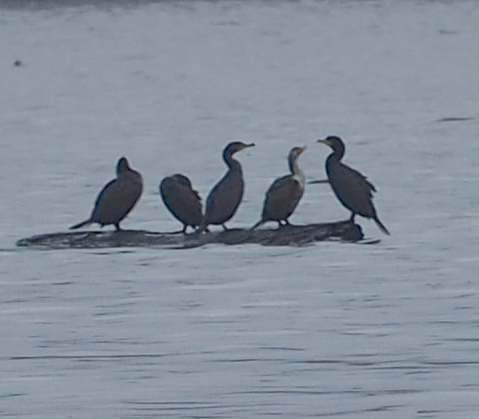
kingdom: Animalia
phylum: Chordata
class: Aves
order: Suliformes
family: Phalacrocoracidae
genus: Phalacrocorax
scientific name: Phalacrocorax auritus
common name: Double-crested cormorant
